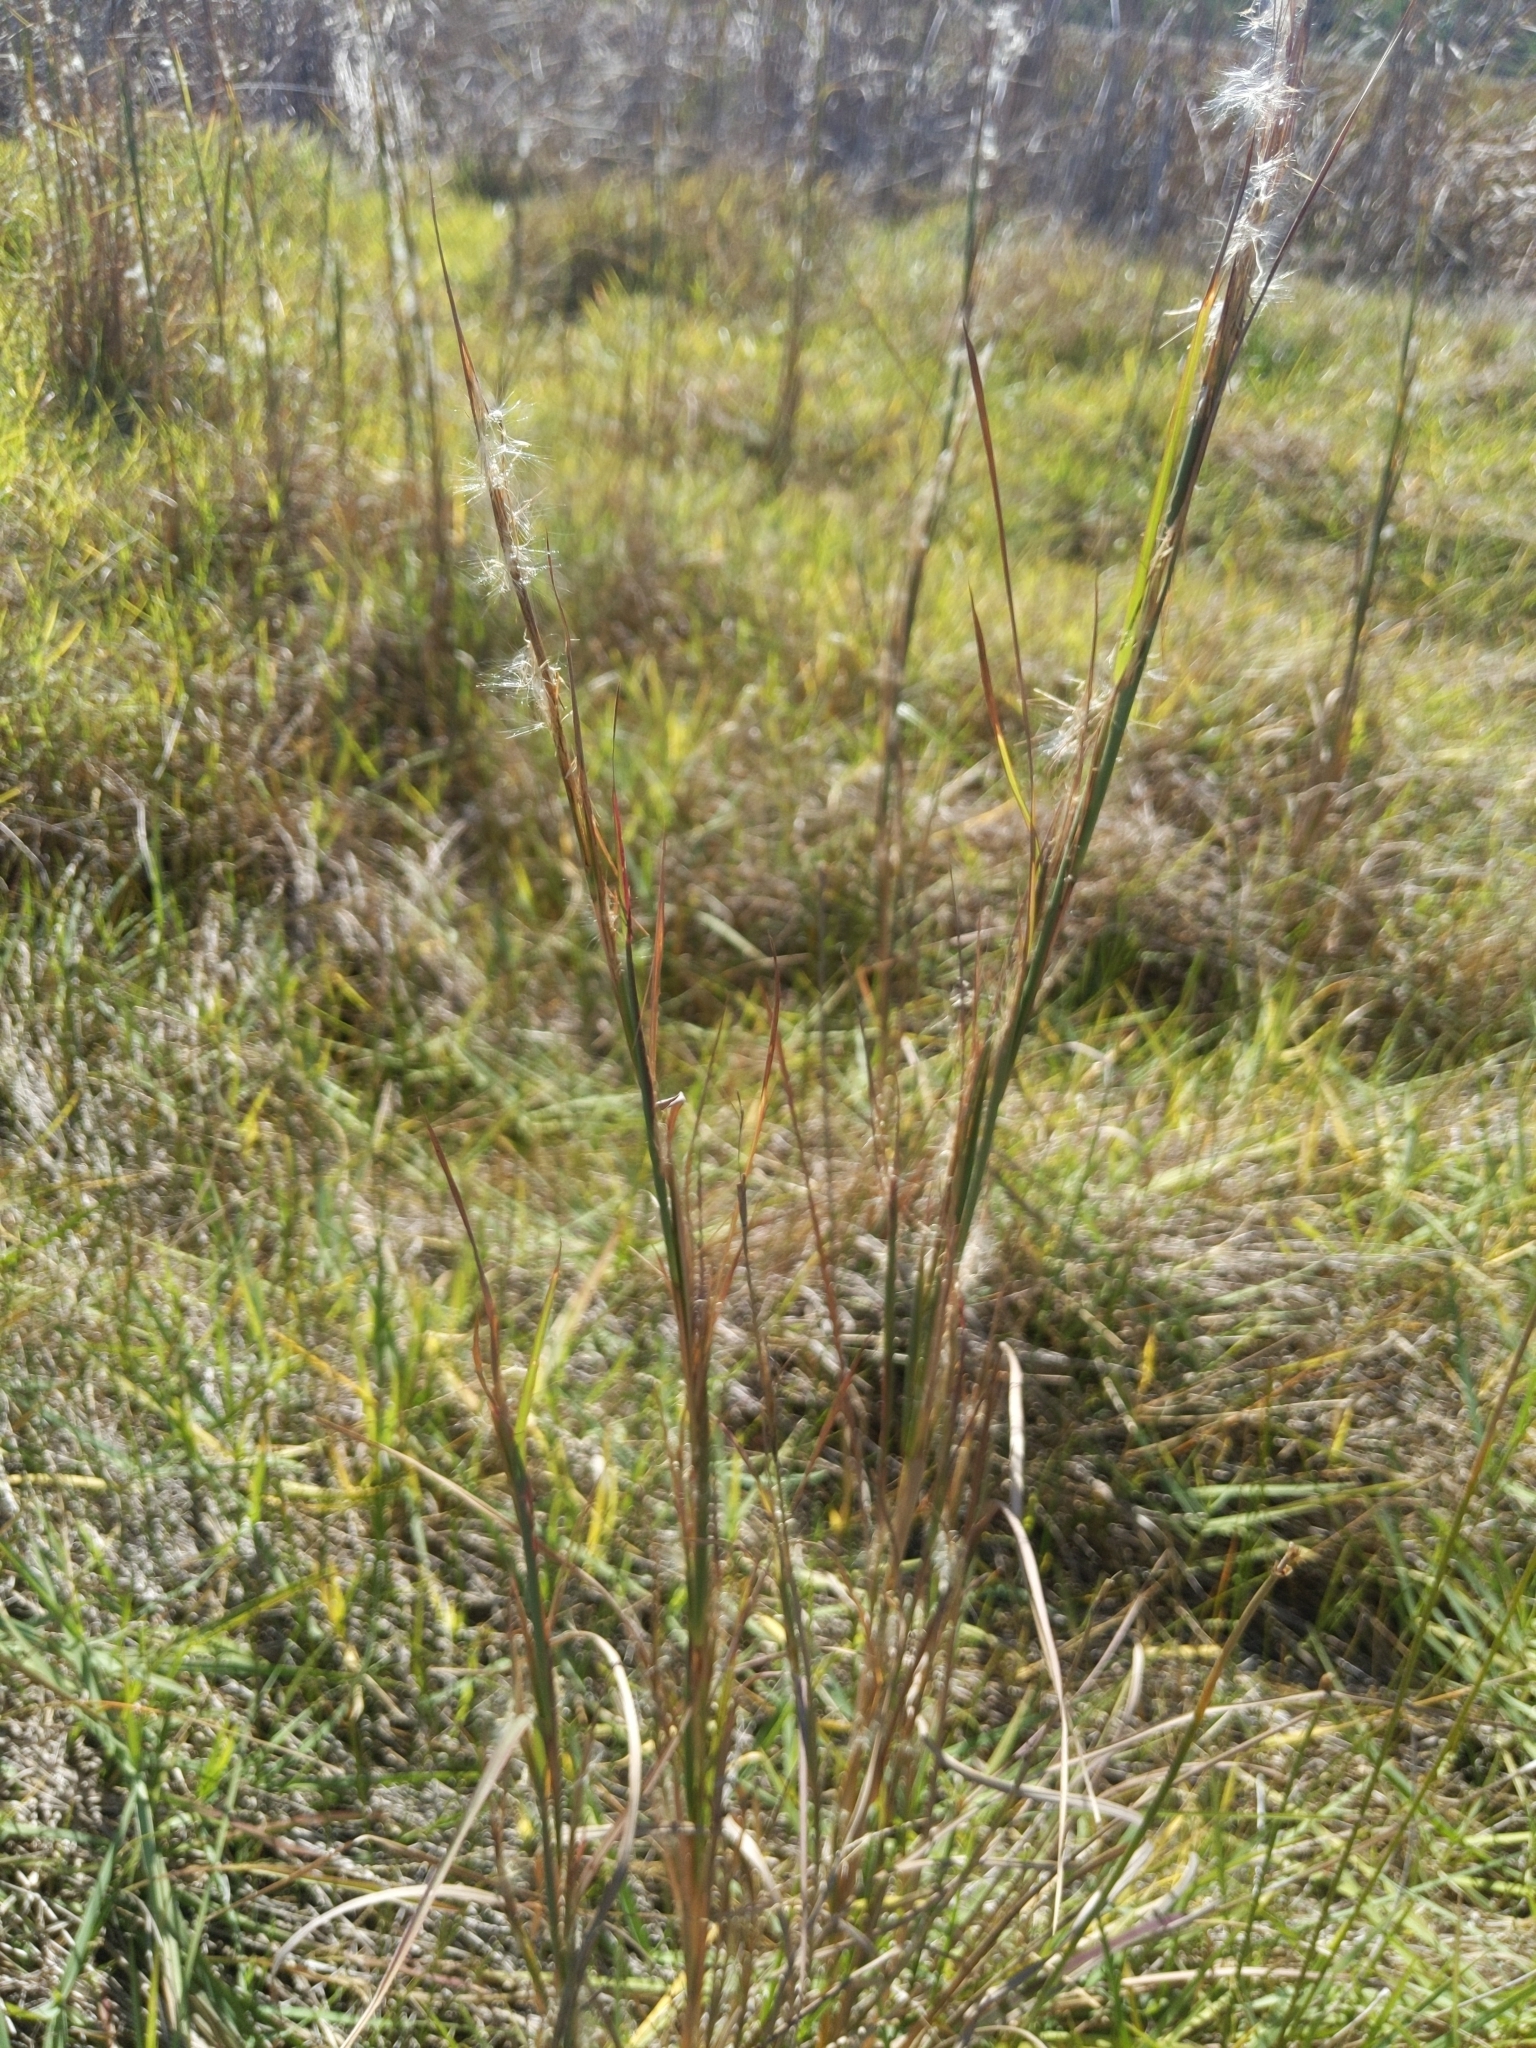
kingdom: Plantae
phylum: Tracheophyta
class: Liliopsida
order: Poales
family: Poaceae
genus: Andropogon
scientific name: Andropogon virginicus
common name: Broomsedge bluestem
